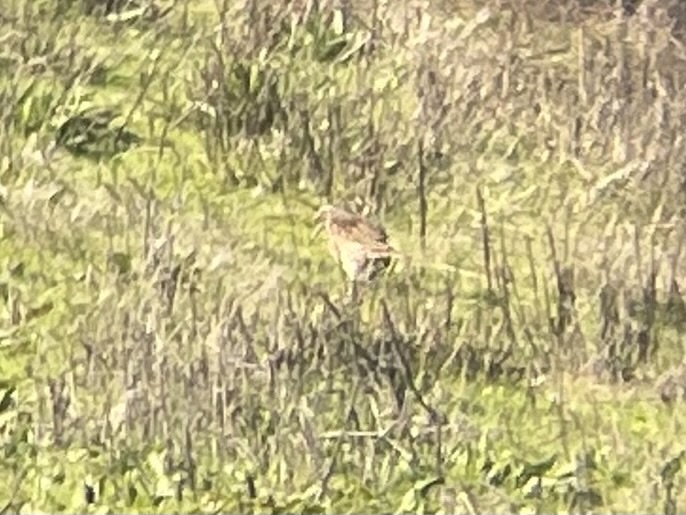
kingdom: Animalia
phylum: Chordata
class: Aves
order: Passeriformes
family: Icteridae
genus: Sturnella
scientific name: Sturnella neglecta
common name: Western meadowlark
